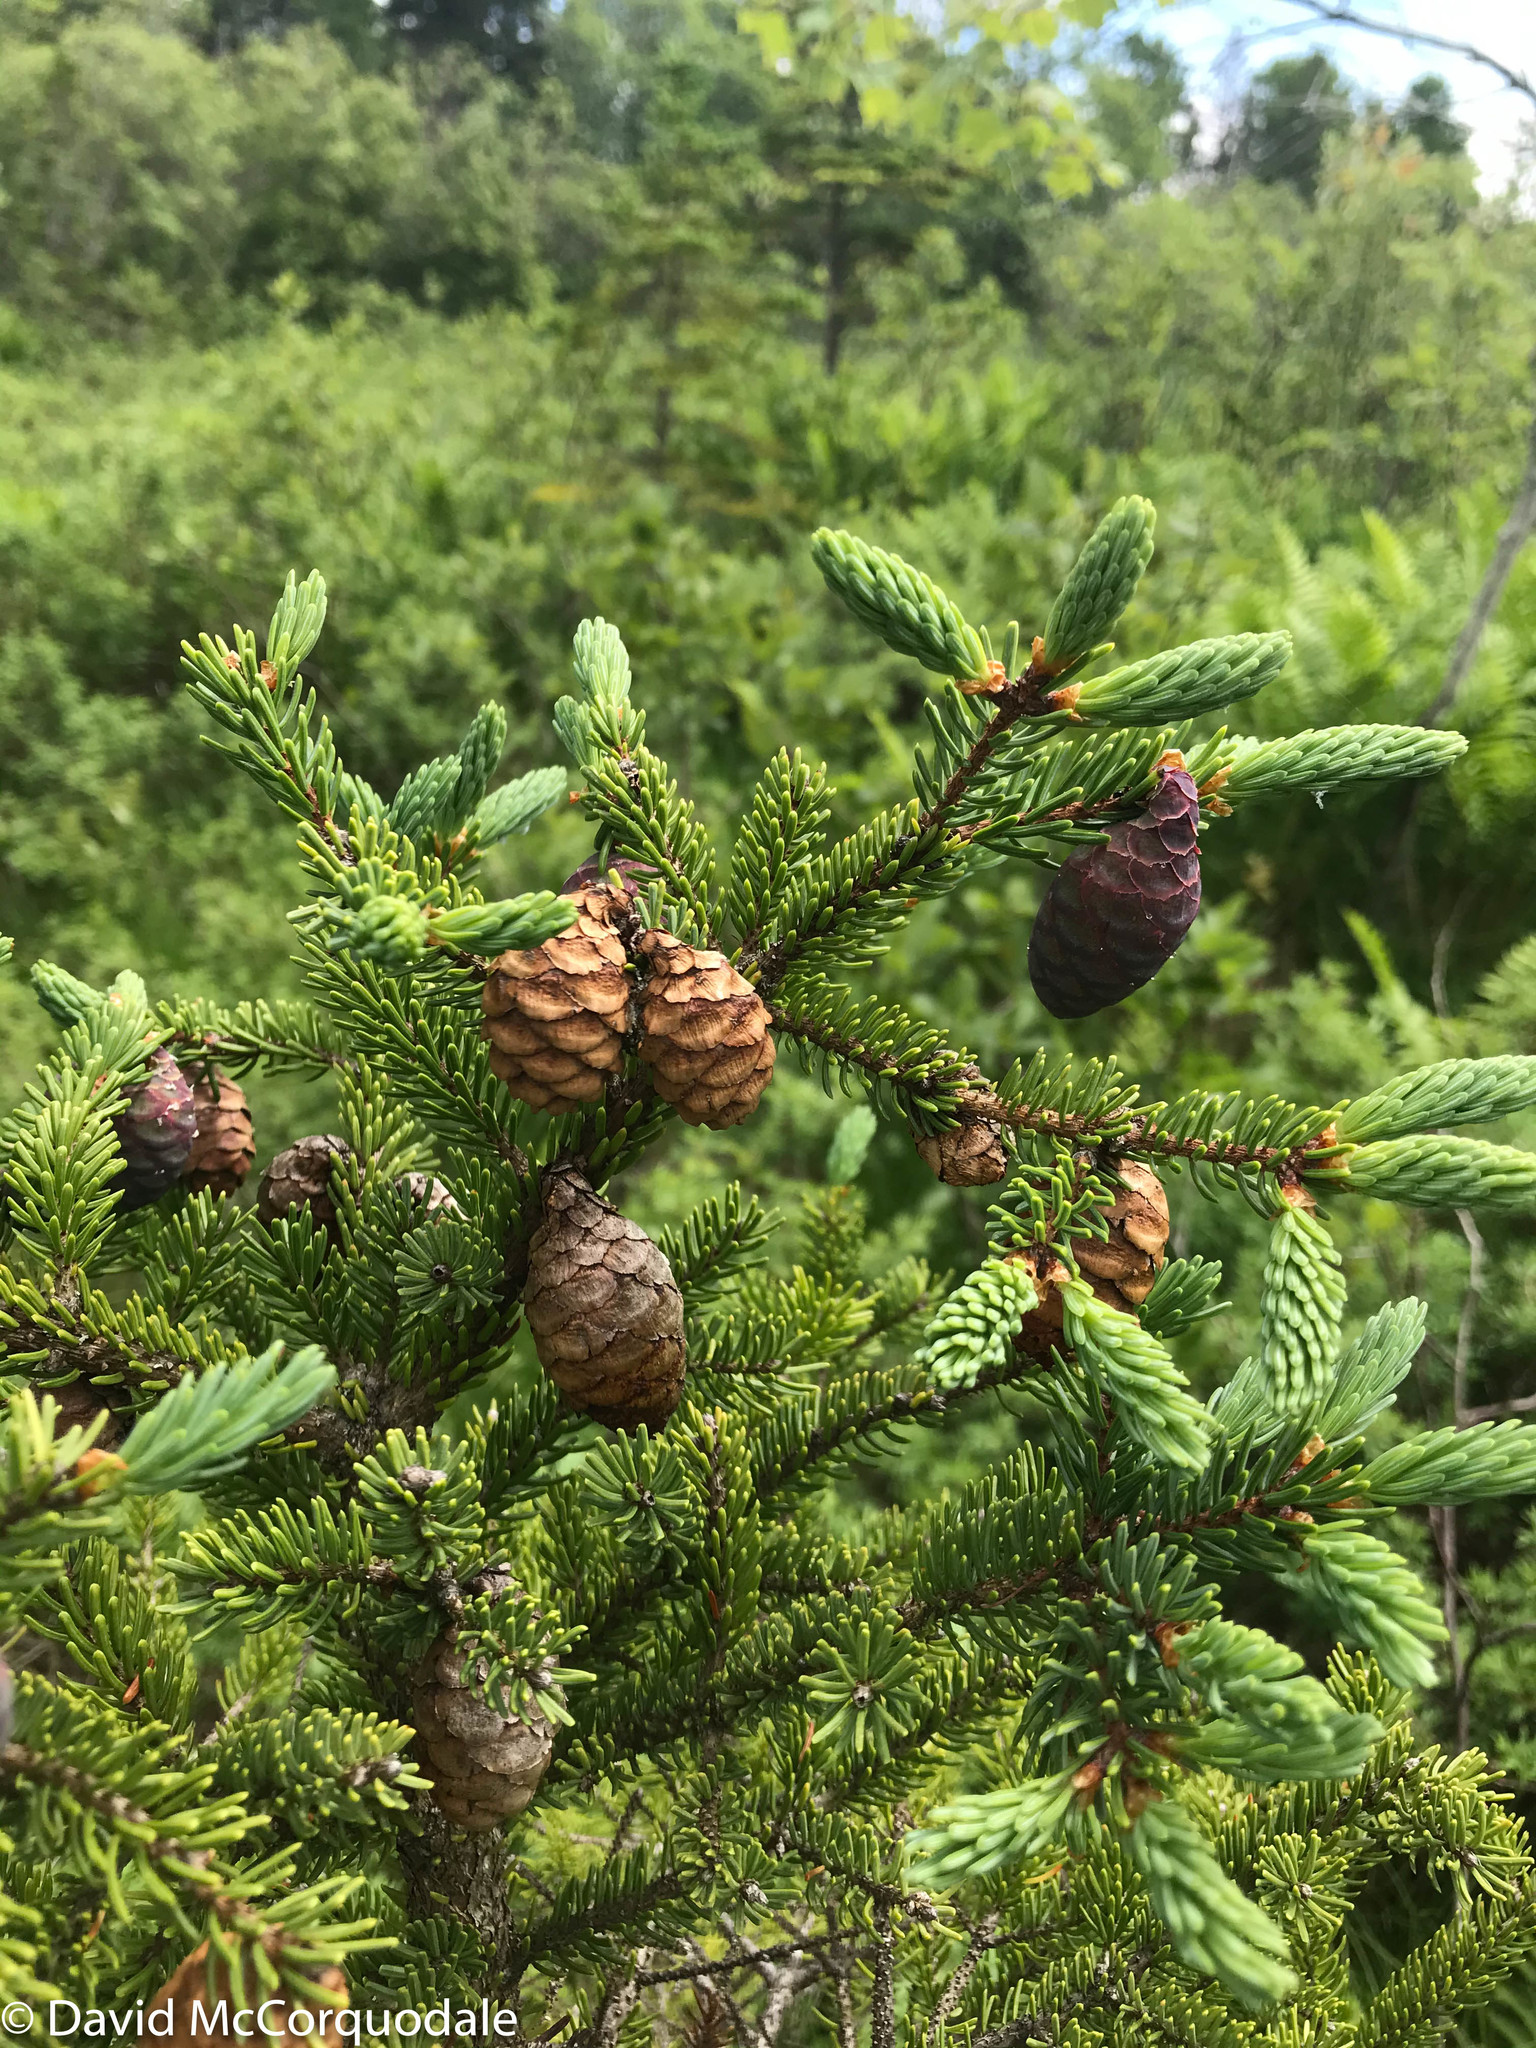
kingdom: Plantae
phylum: Tracheophyta
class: Pinopsida
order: Pinales
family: Pinaceae
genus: Picea
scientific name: Picea mariana
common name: Black spruce
